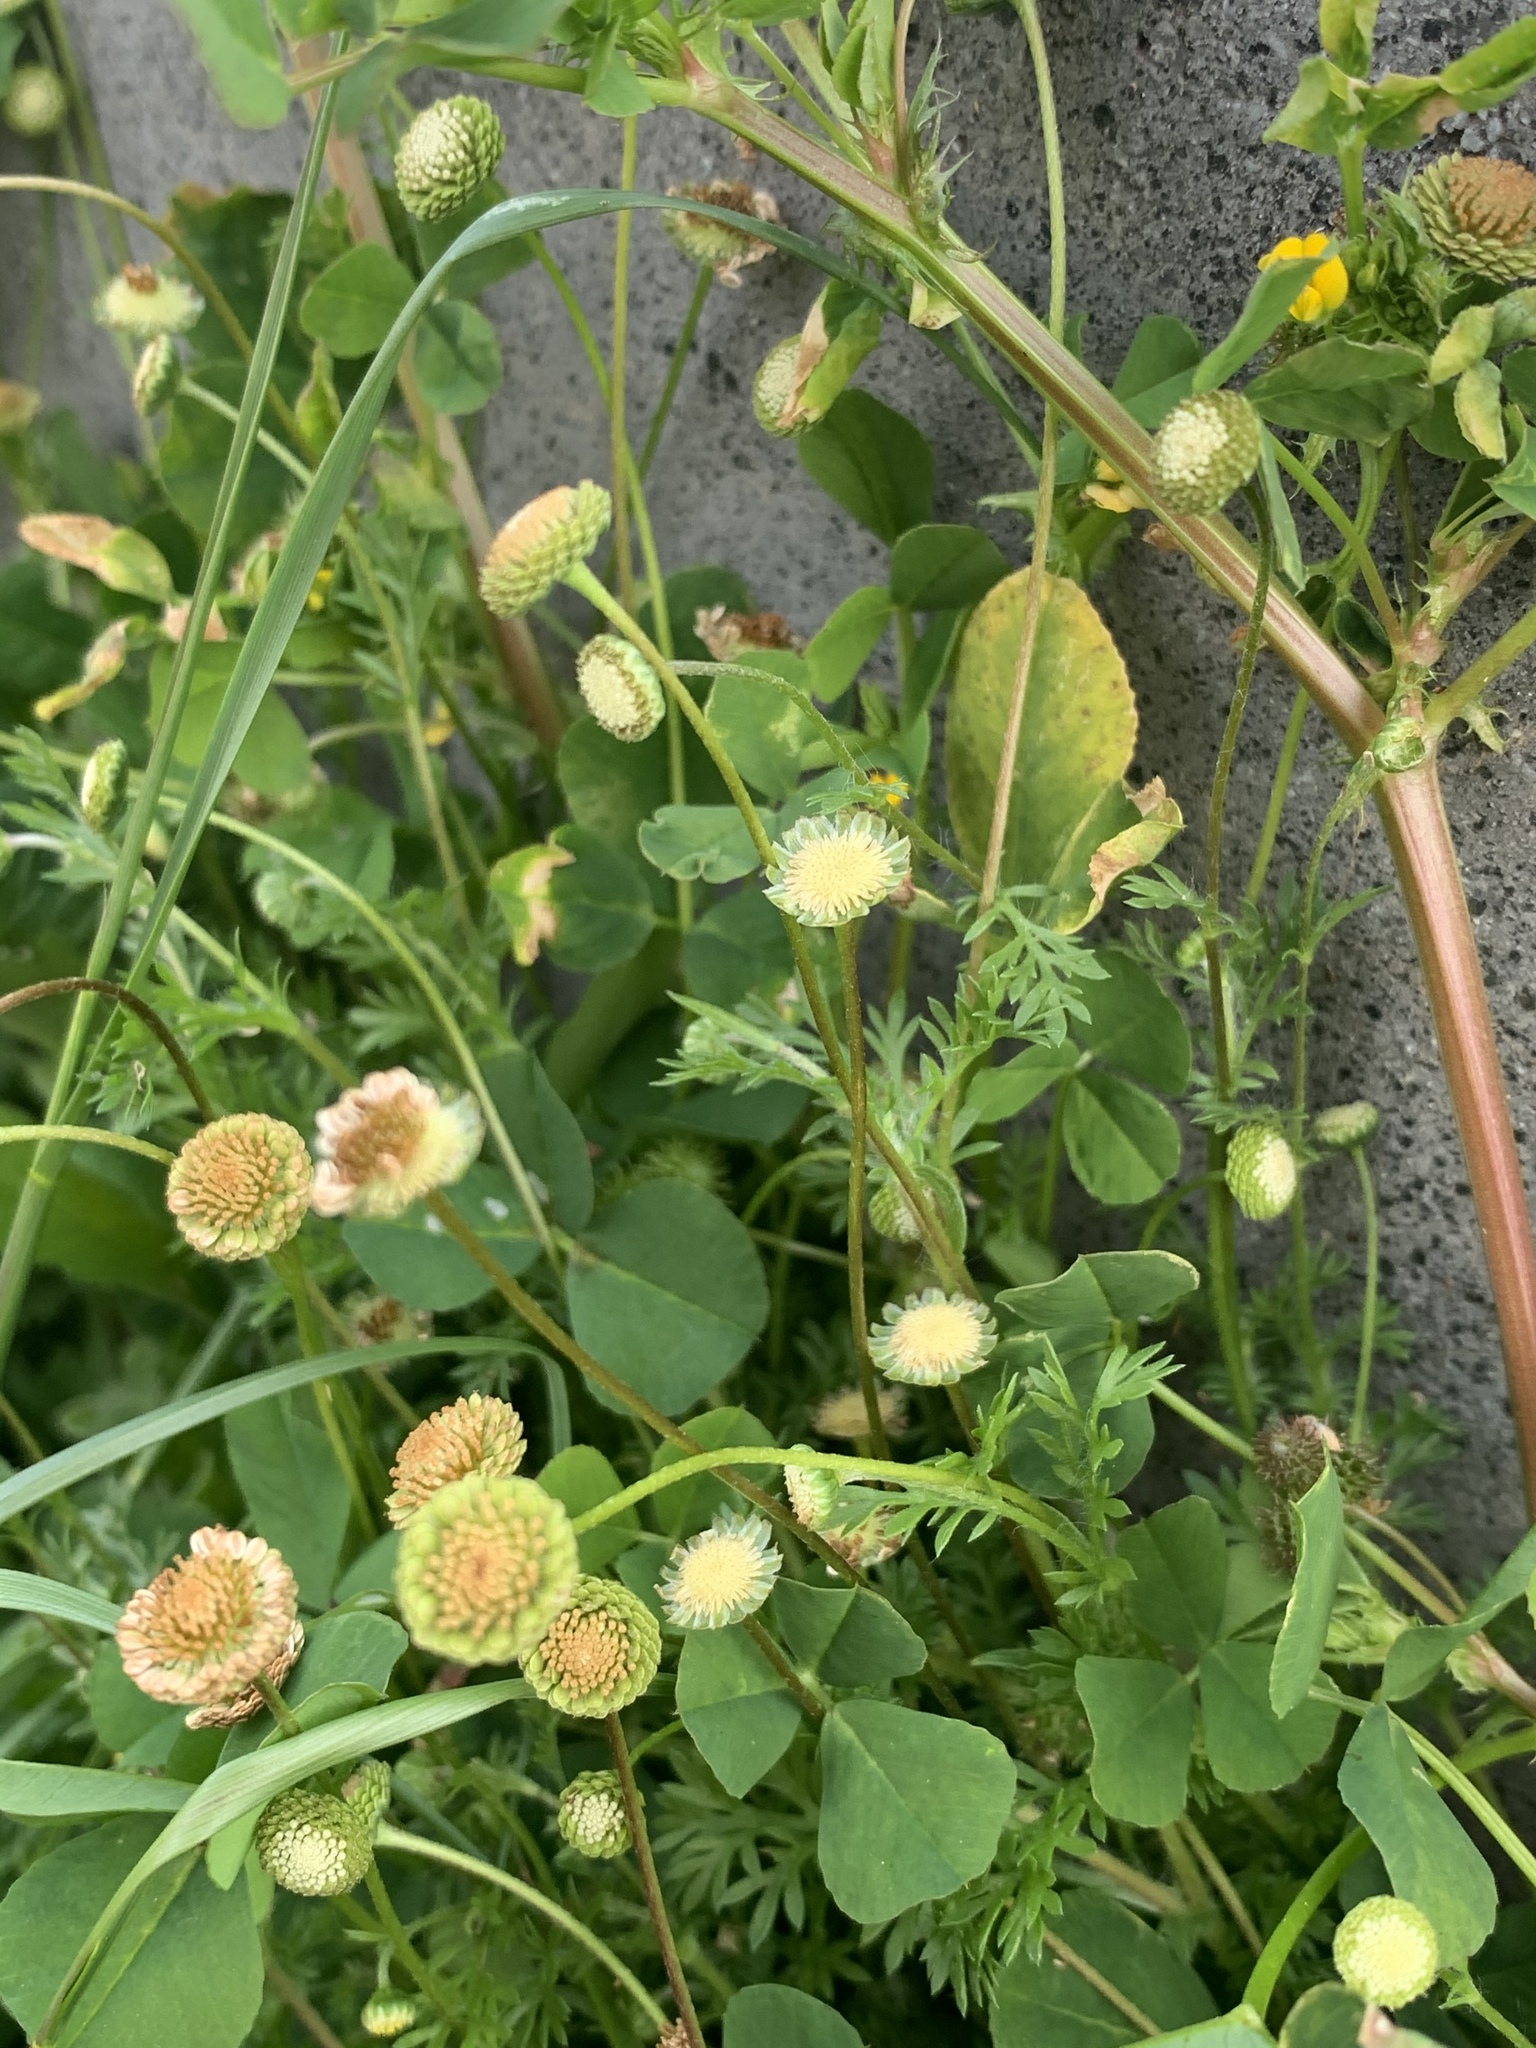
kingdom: Plantae
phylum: Tracheophyta
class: Magnoliopsida
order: Asterales
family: Asteraceae
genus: Cotula
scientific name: Cotula australis
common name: Australian waterbuttons
